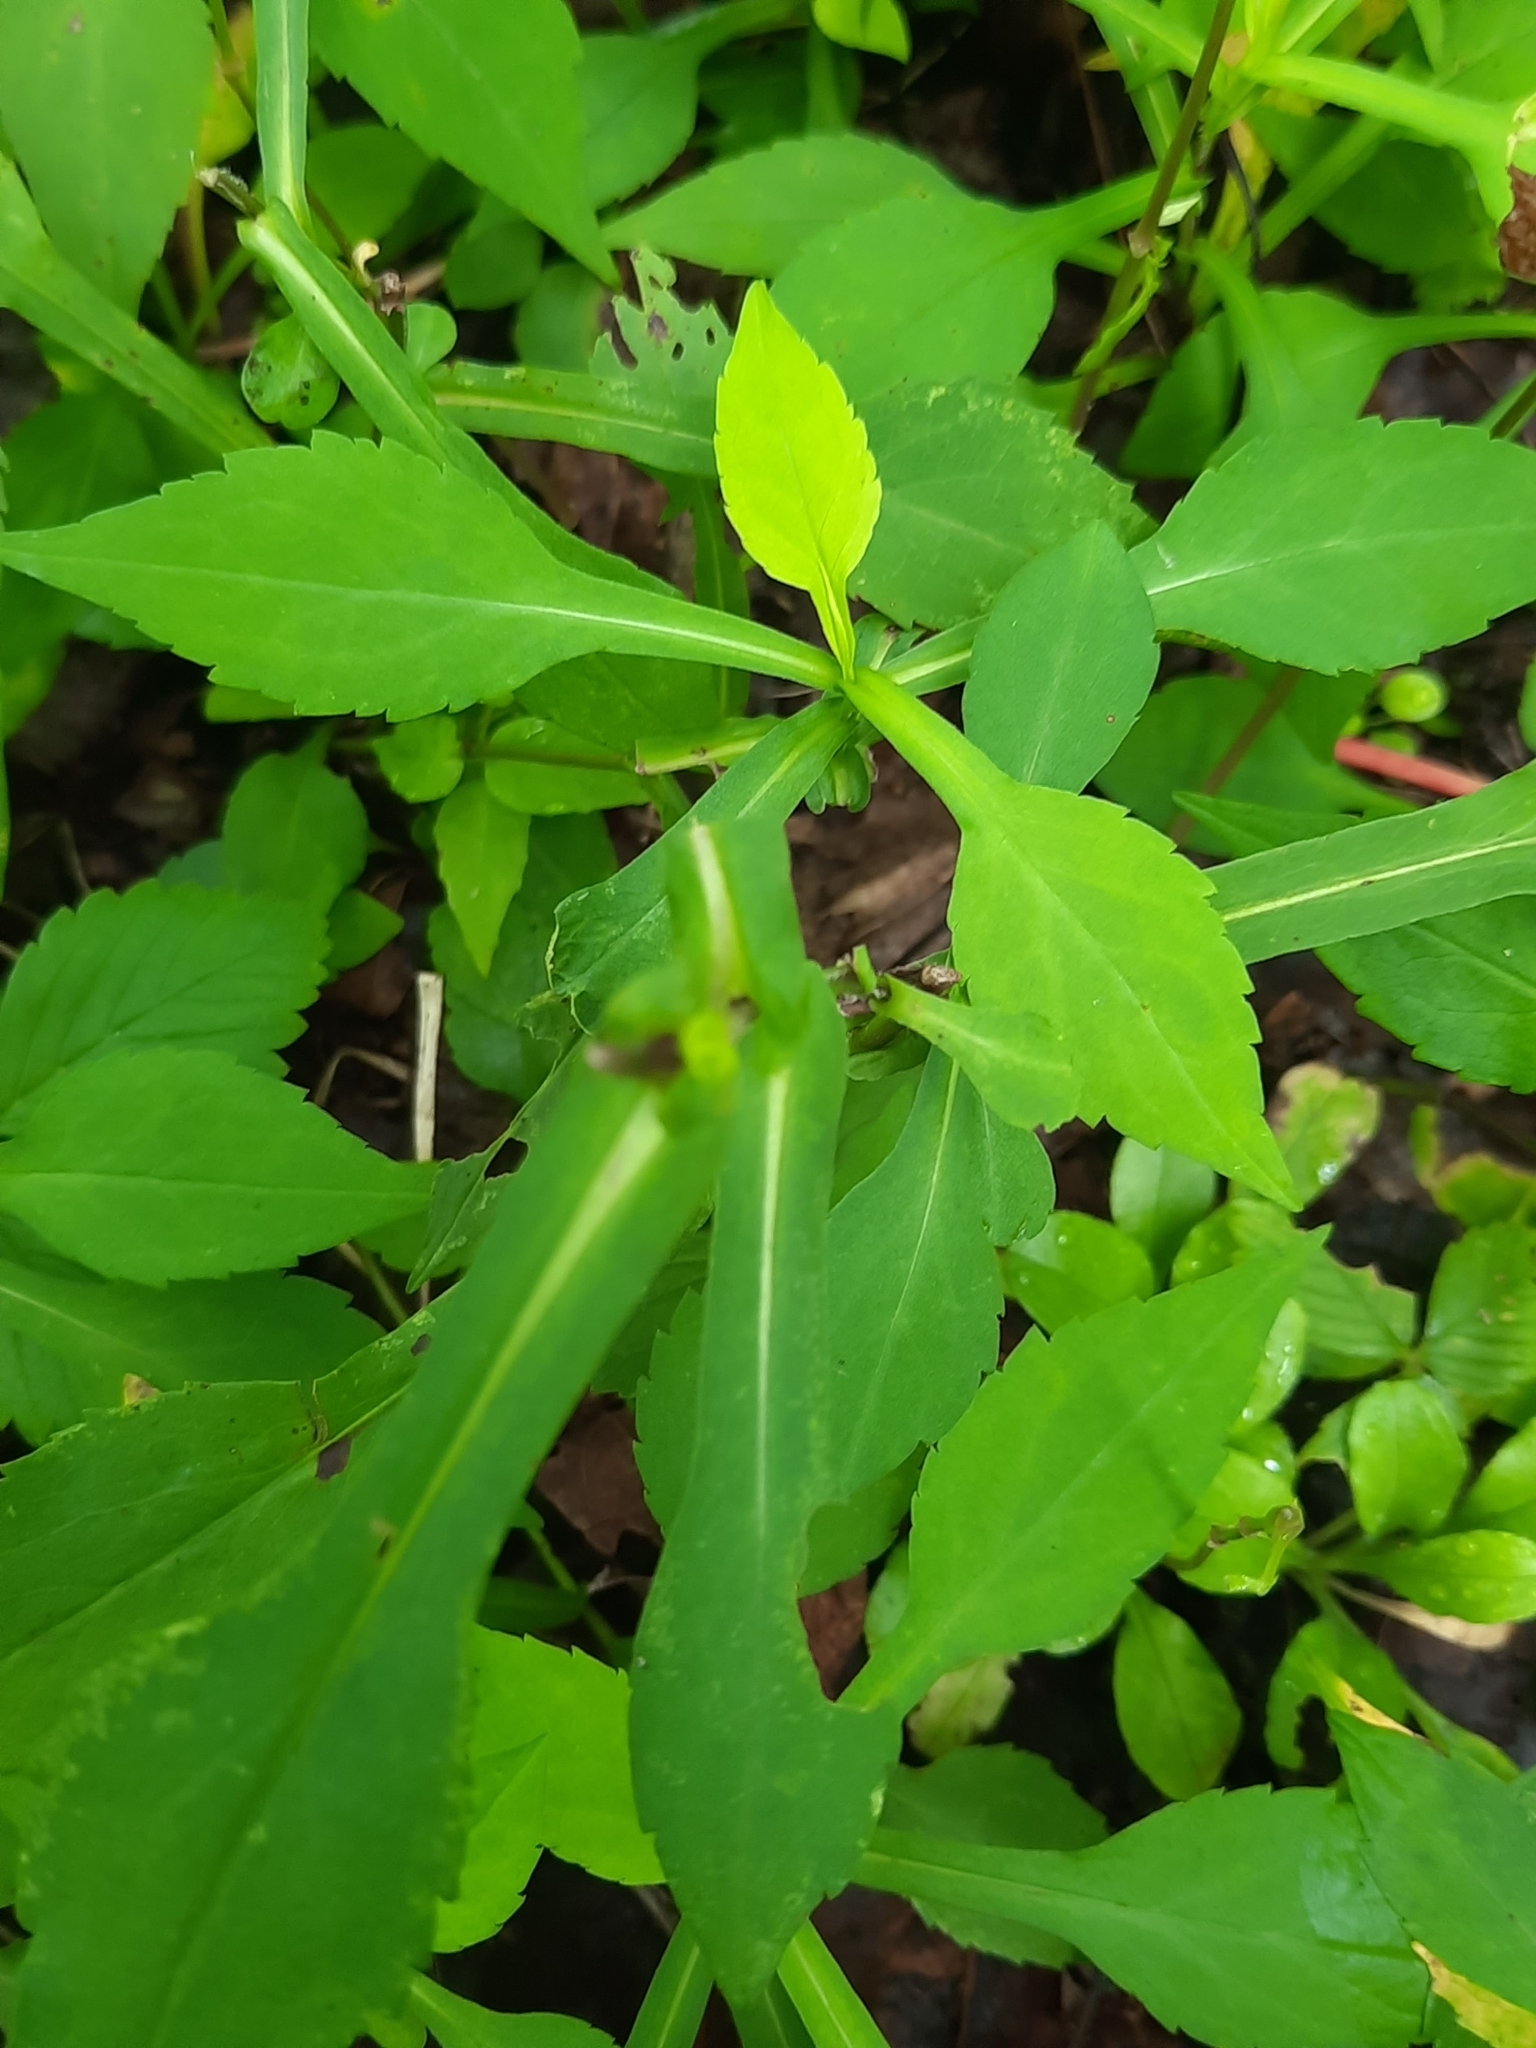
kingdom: Plantae
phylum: Tracheophyta
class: Magnoliopsida
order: Asterales
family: Asteraceae
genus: Symphyotrichum
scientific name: Symphyotrichum prenanthoides
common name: Crooked-stem aster
